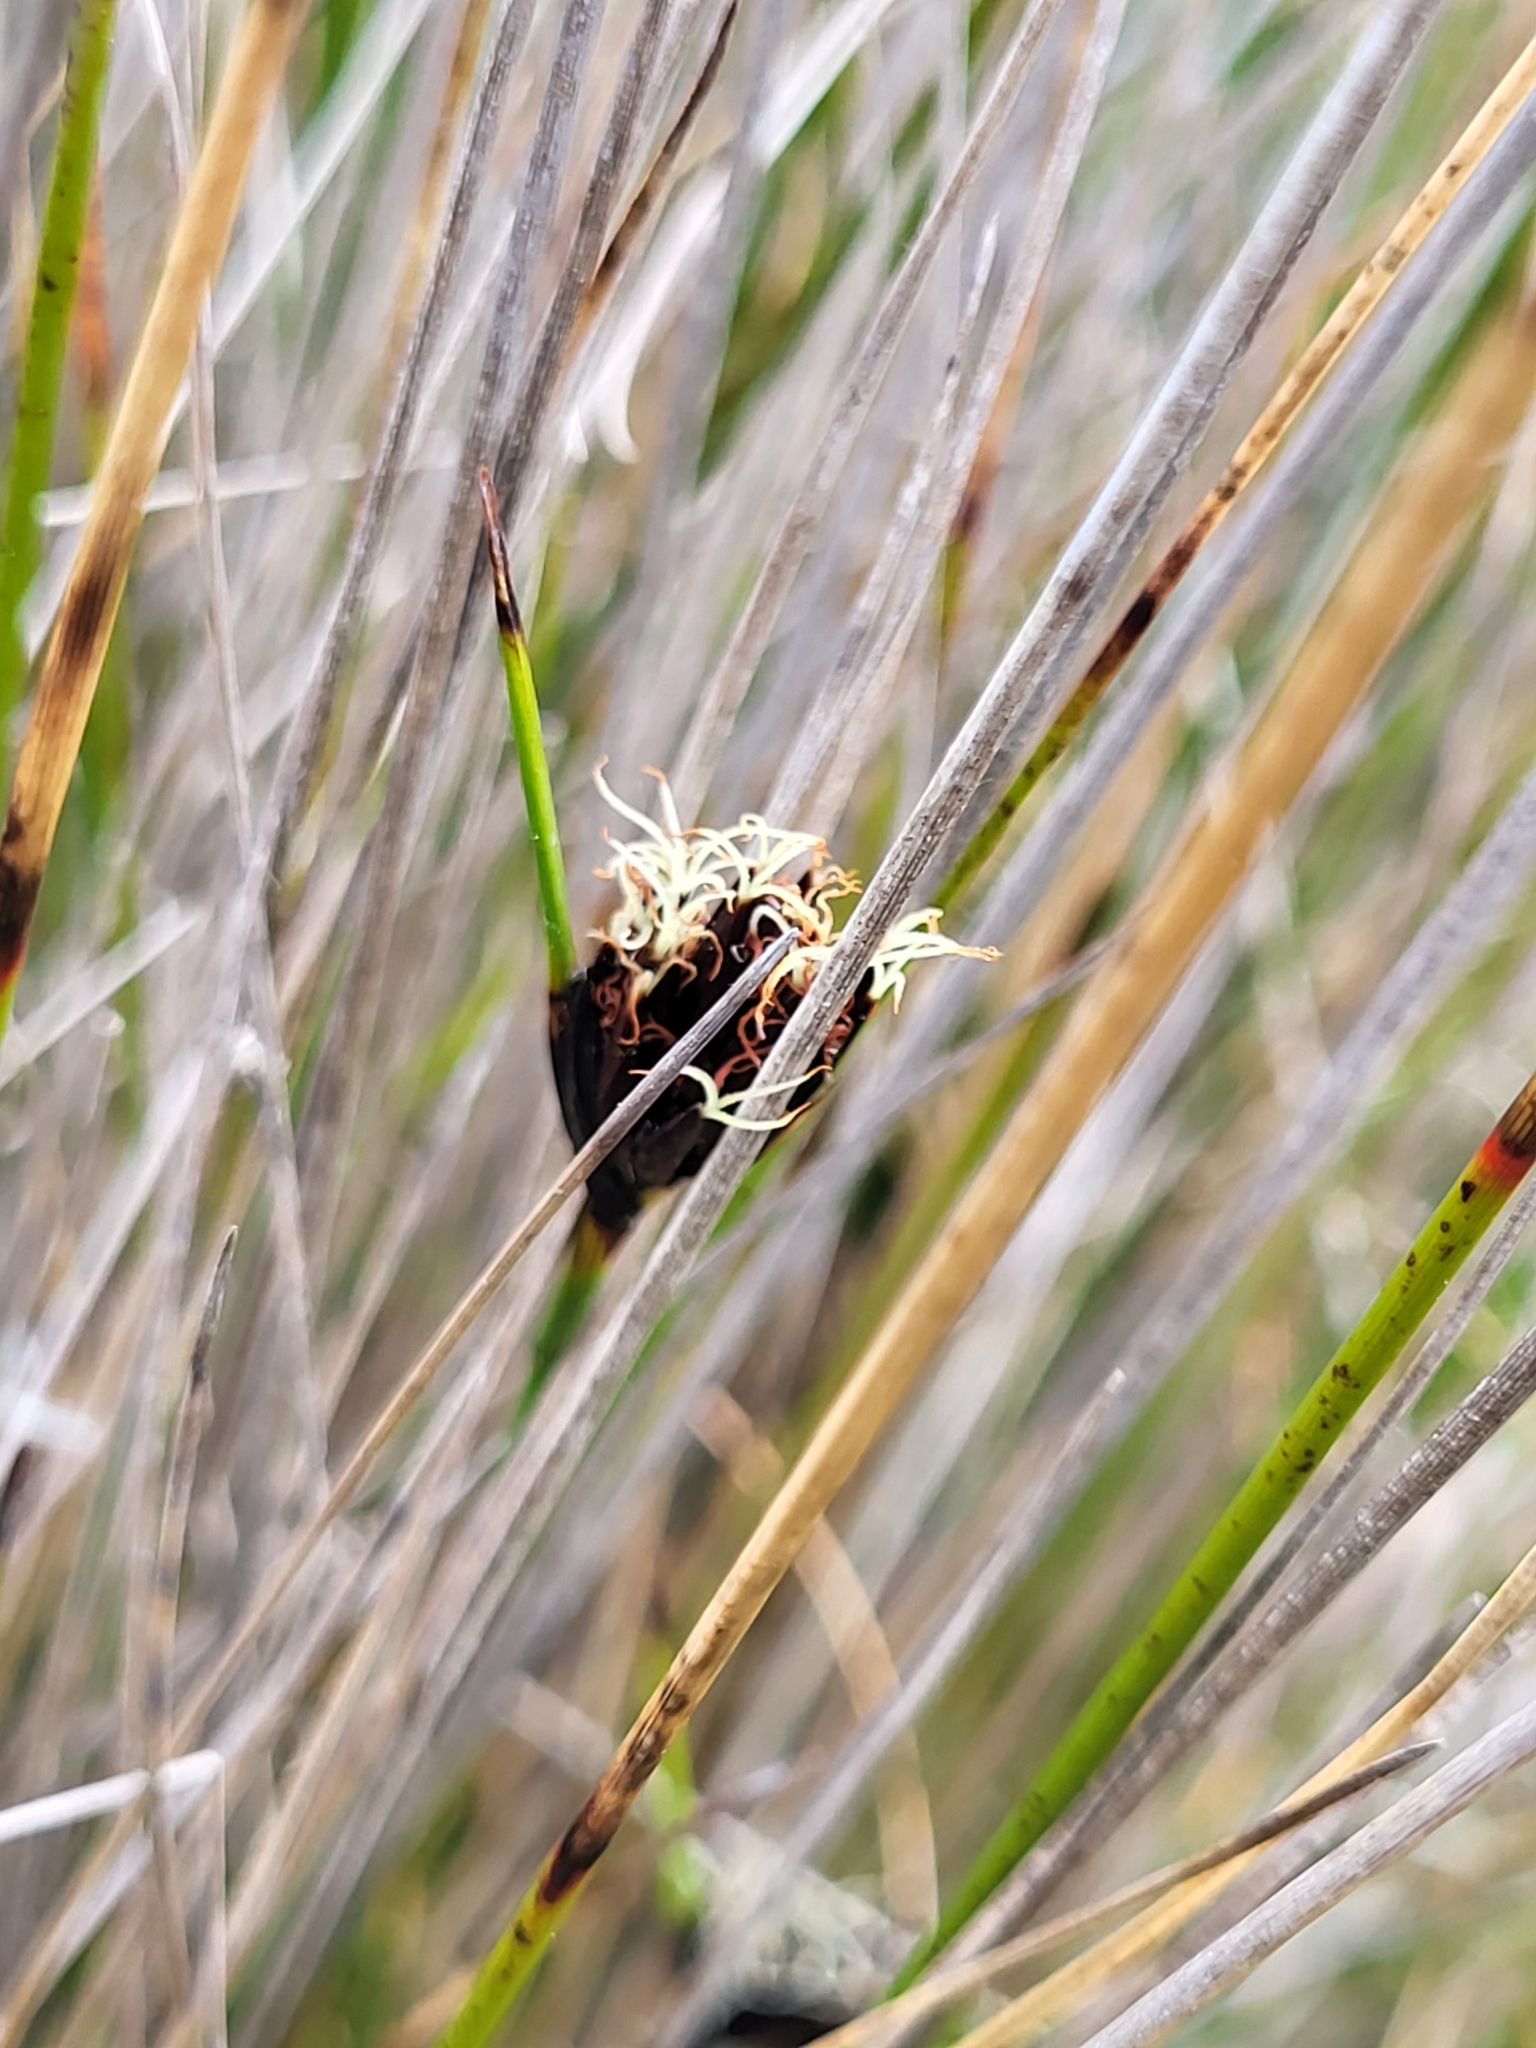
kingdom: Plantae
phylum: Tracheophyta
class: Liliopsida
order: Poales
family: Cyperaceae
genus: Schoenus
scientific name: Schoenus nigricans
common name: Black bog-rush
